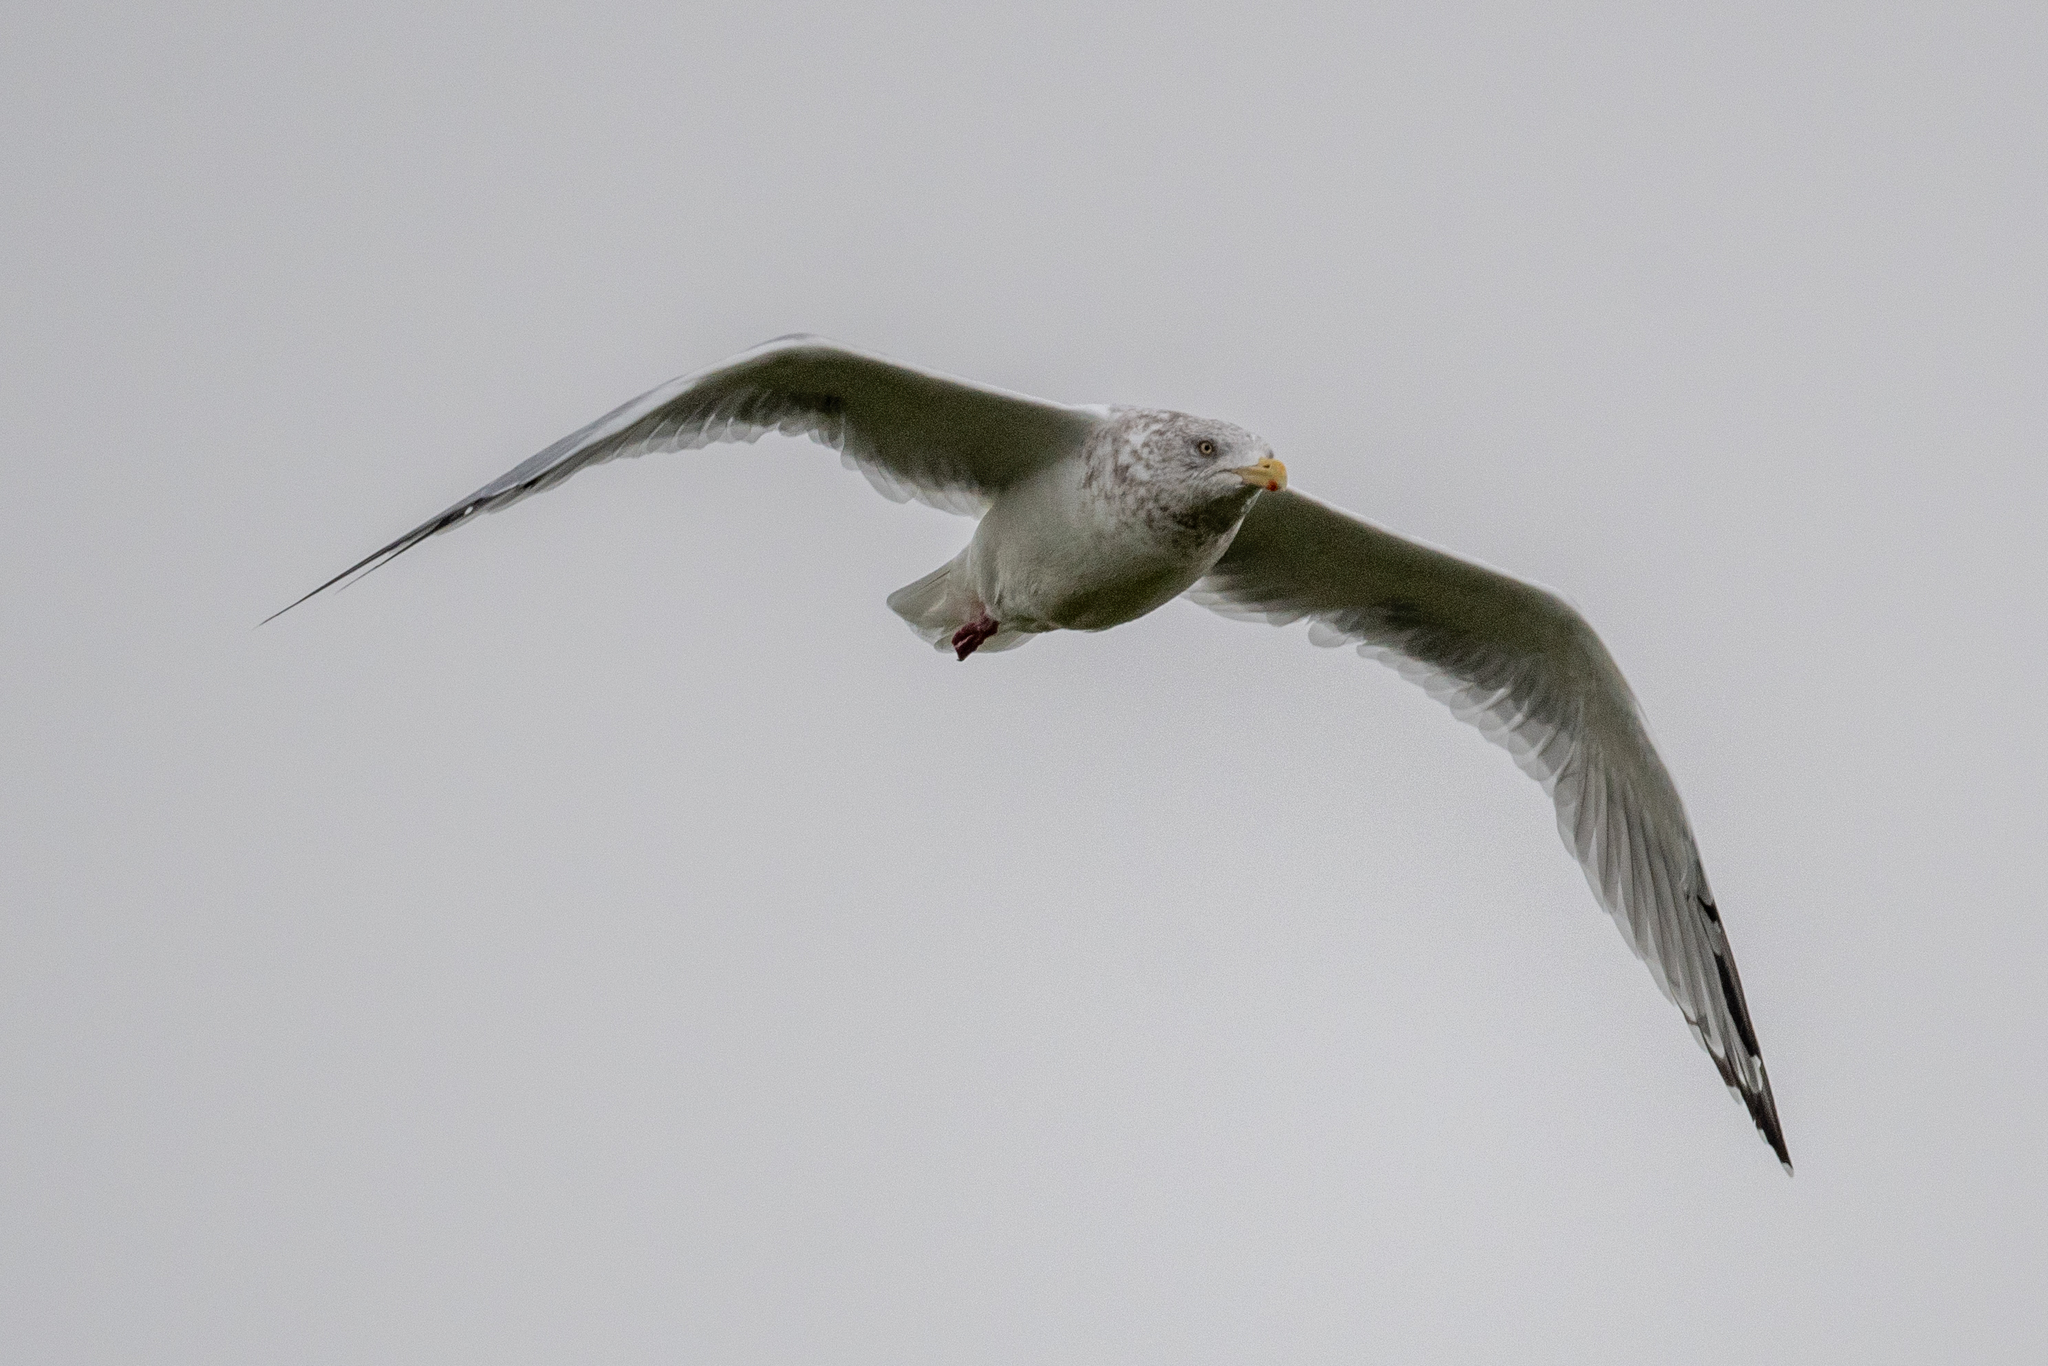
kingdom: Animalia
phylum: Chordata
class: Aves
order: Charadriiformes
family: Laridae
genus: Larus
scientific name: Larus argentatus
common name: Herring gull
